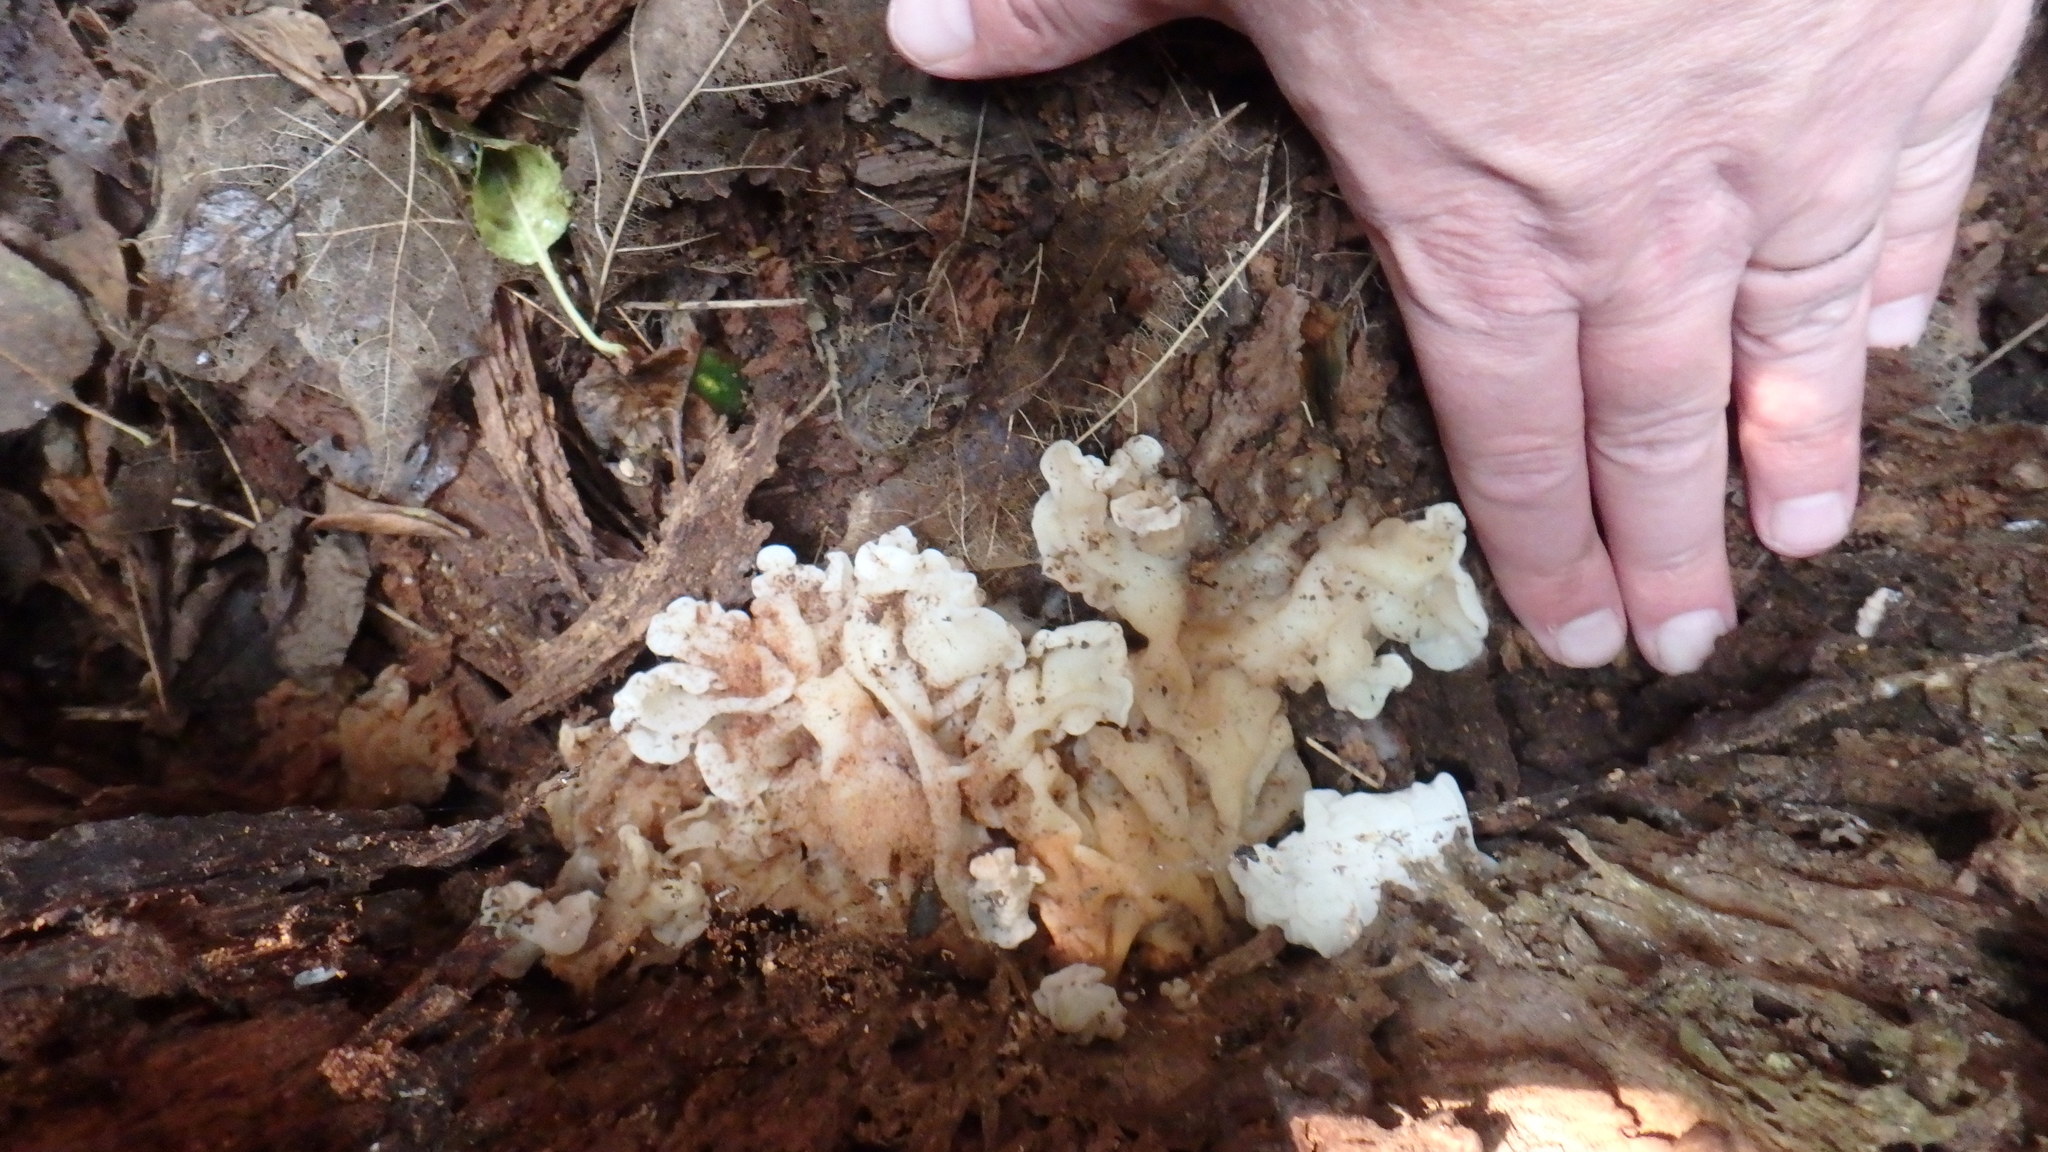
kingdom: Fungi
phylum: Basidiomycota
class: Agaricomycetes
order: Auriculariales
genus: Ductifera
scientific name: Ductifera pululahuana
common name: White jelly fungus
